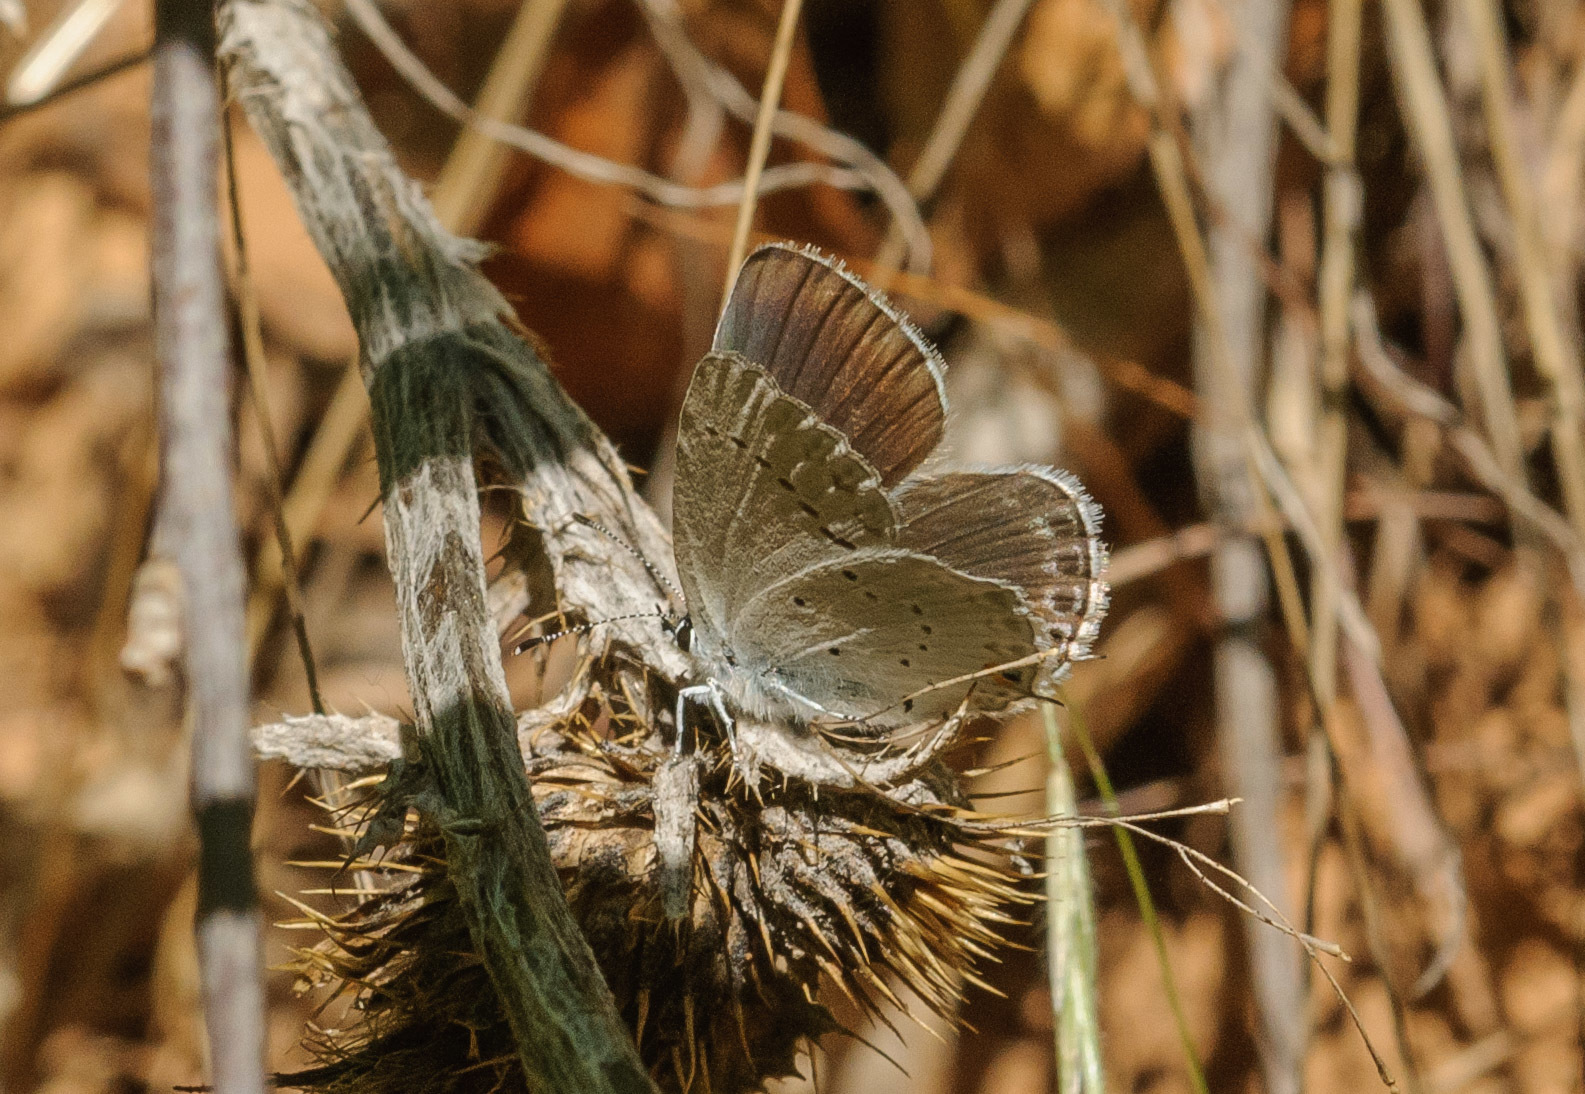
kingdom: Animalia
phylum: Arthropoda
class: Insecta
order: Lepidoptera
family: Lycaenidae
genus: Elkalyce
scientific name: Elkalyce amyntula
